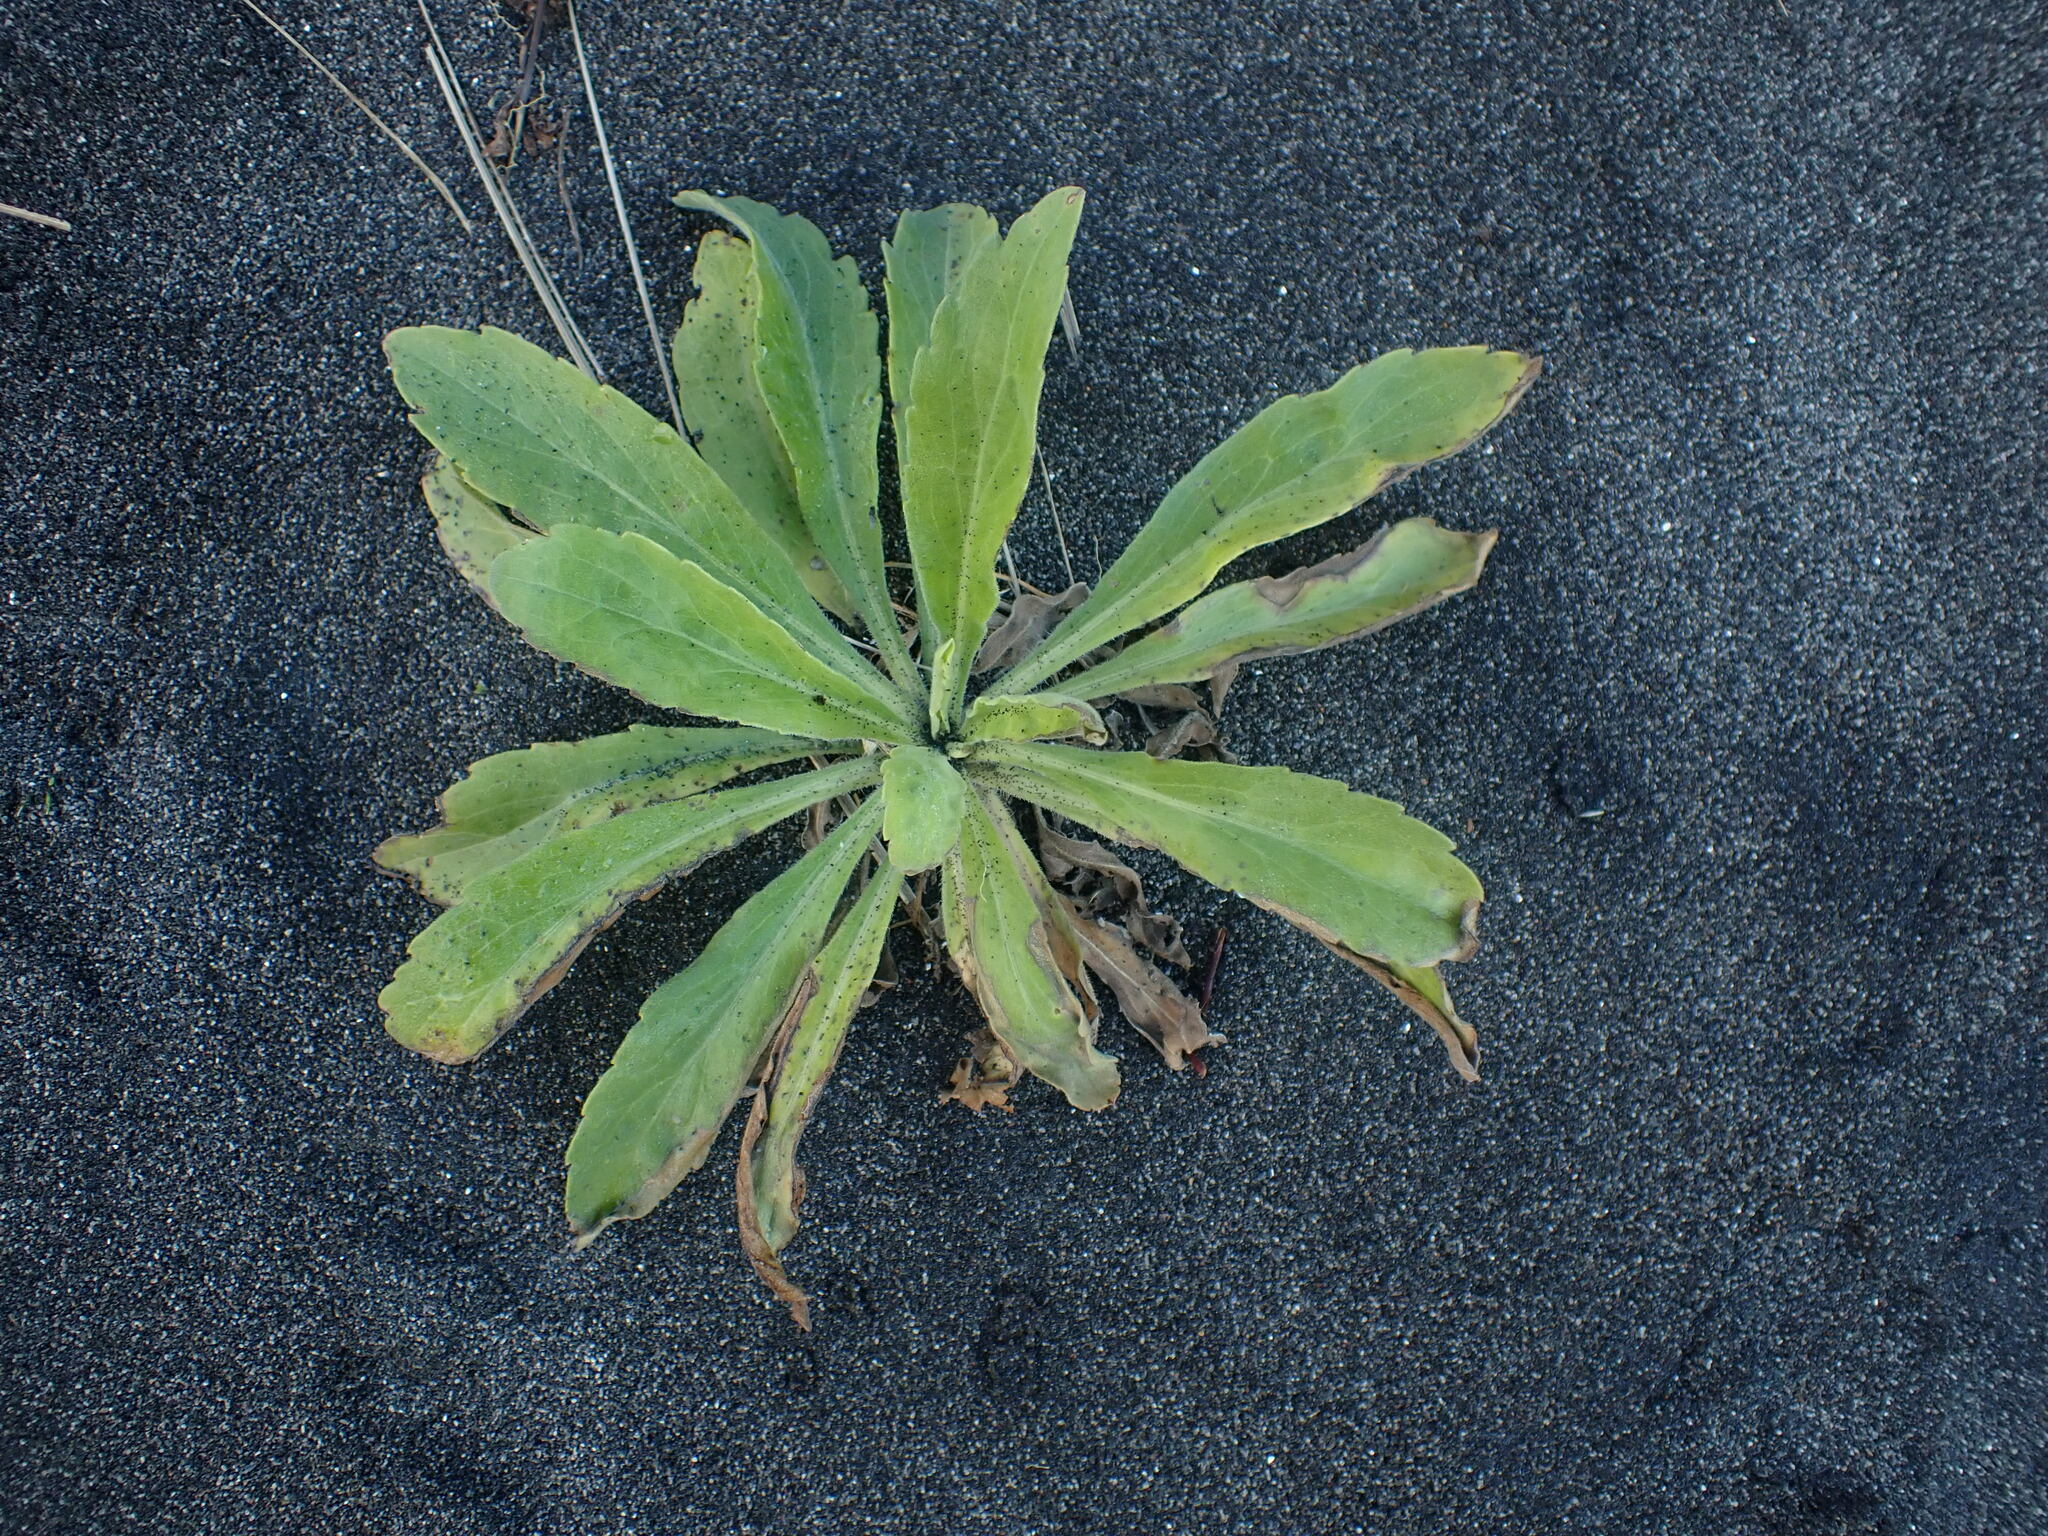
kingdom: Plantae
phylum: Tracheophyta
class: Magnoliopsida
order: Asterales
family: Asteraceae
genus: Erigeron
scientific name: Erigeron sumatrensis
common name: Daisy
